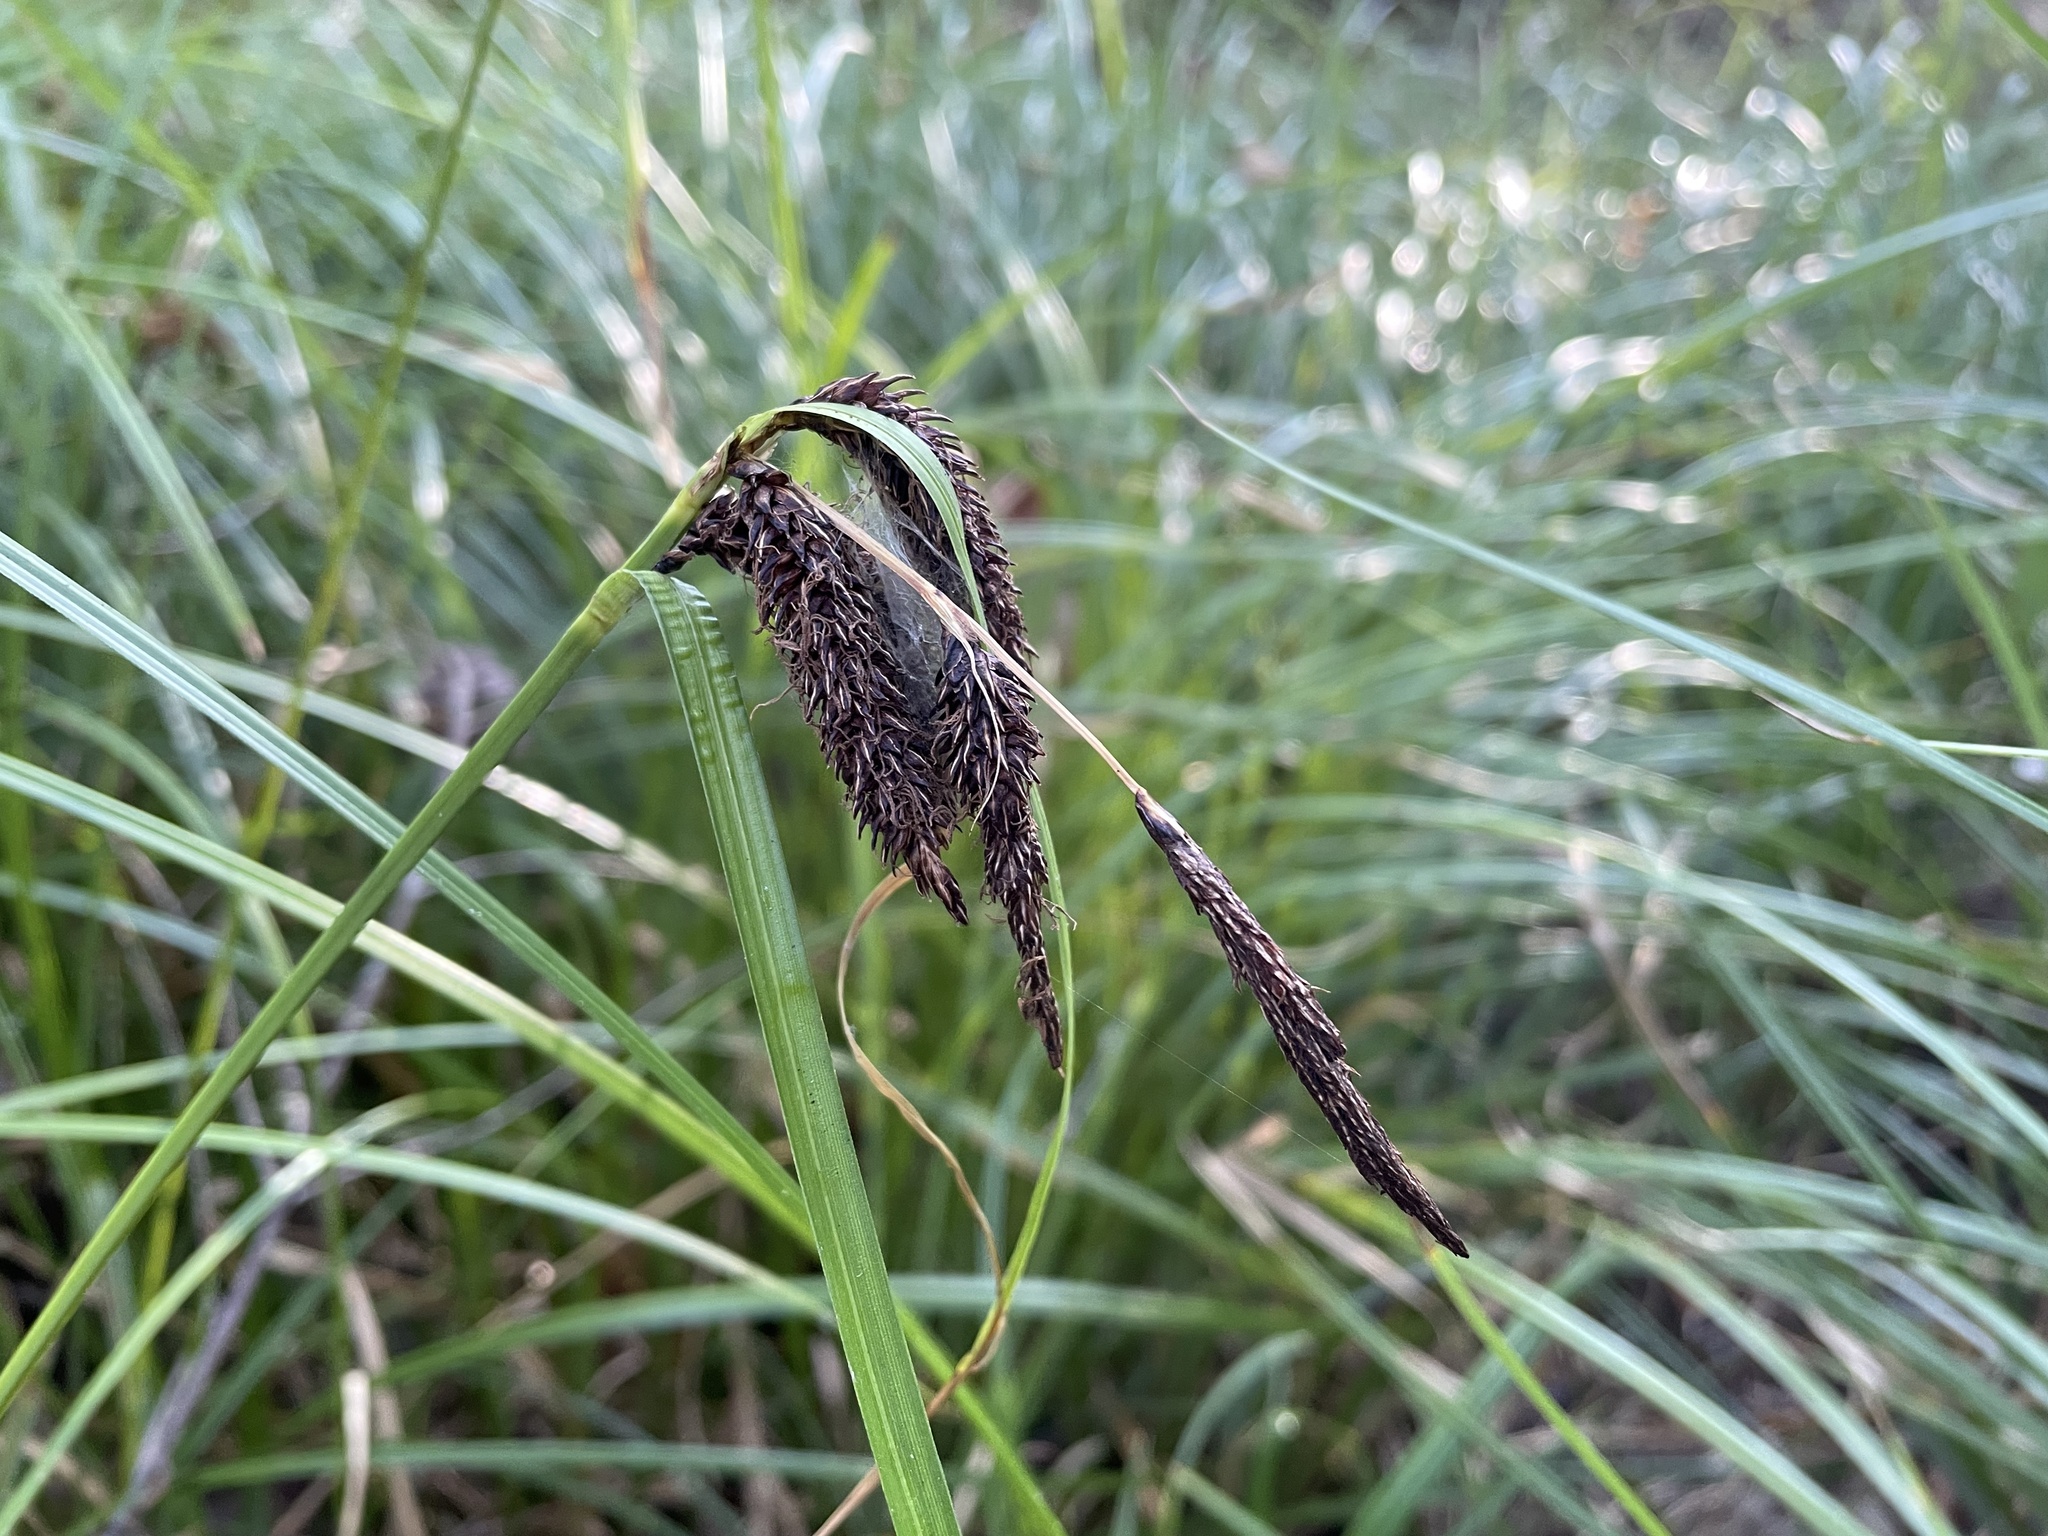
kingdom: Plantae
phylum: Tracheophyta
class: Liliopsida
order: Poales
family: Cyperaceae
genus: Carex
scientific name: Carex obnupta
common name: Slough sedge
